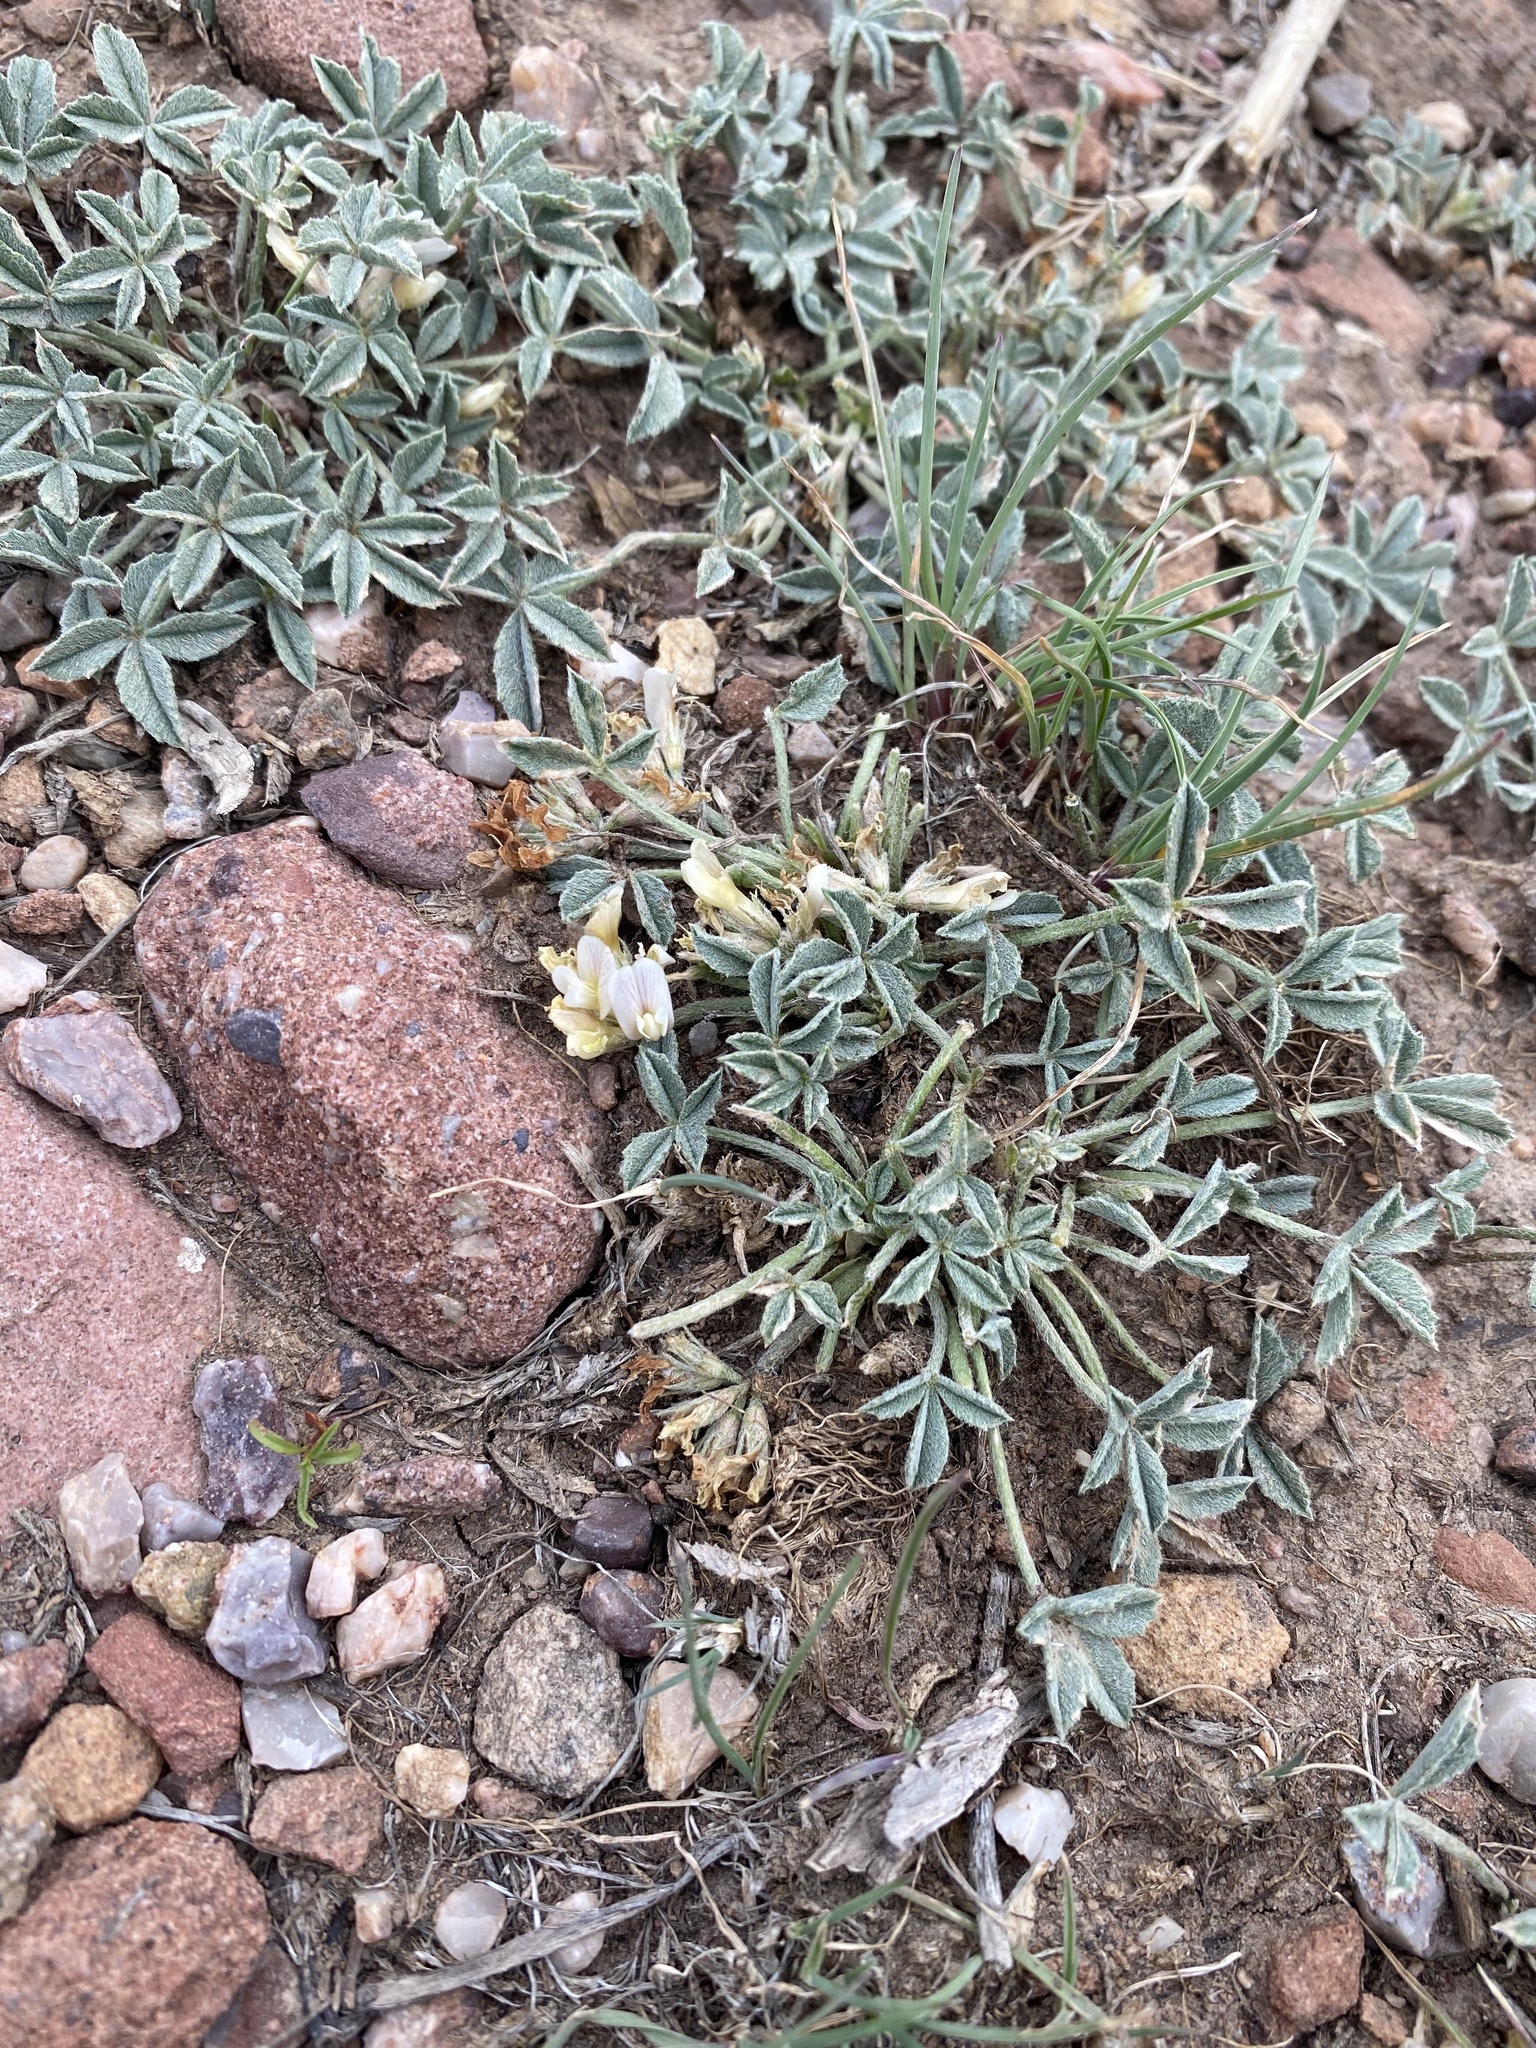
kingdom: Plantae
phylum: Tracheophyta
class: Magnoliopsida
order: Fabales
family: Fabaceae
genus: Trifolium
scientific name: Trifolium gymnocarpon
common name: Tufted clover
